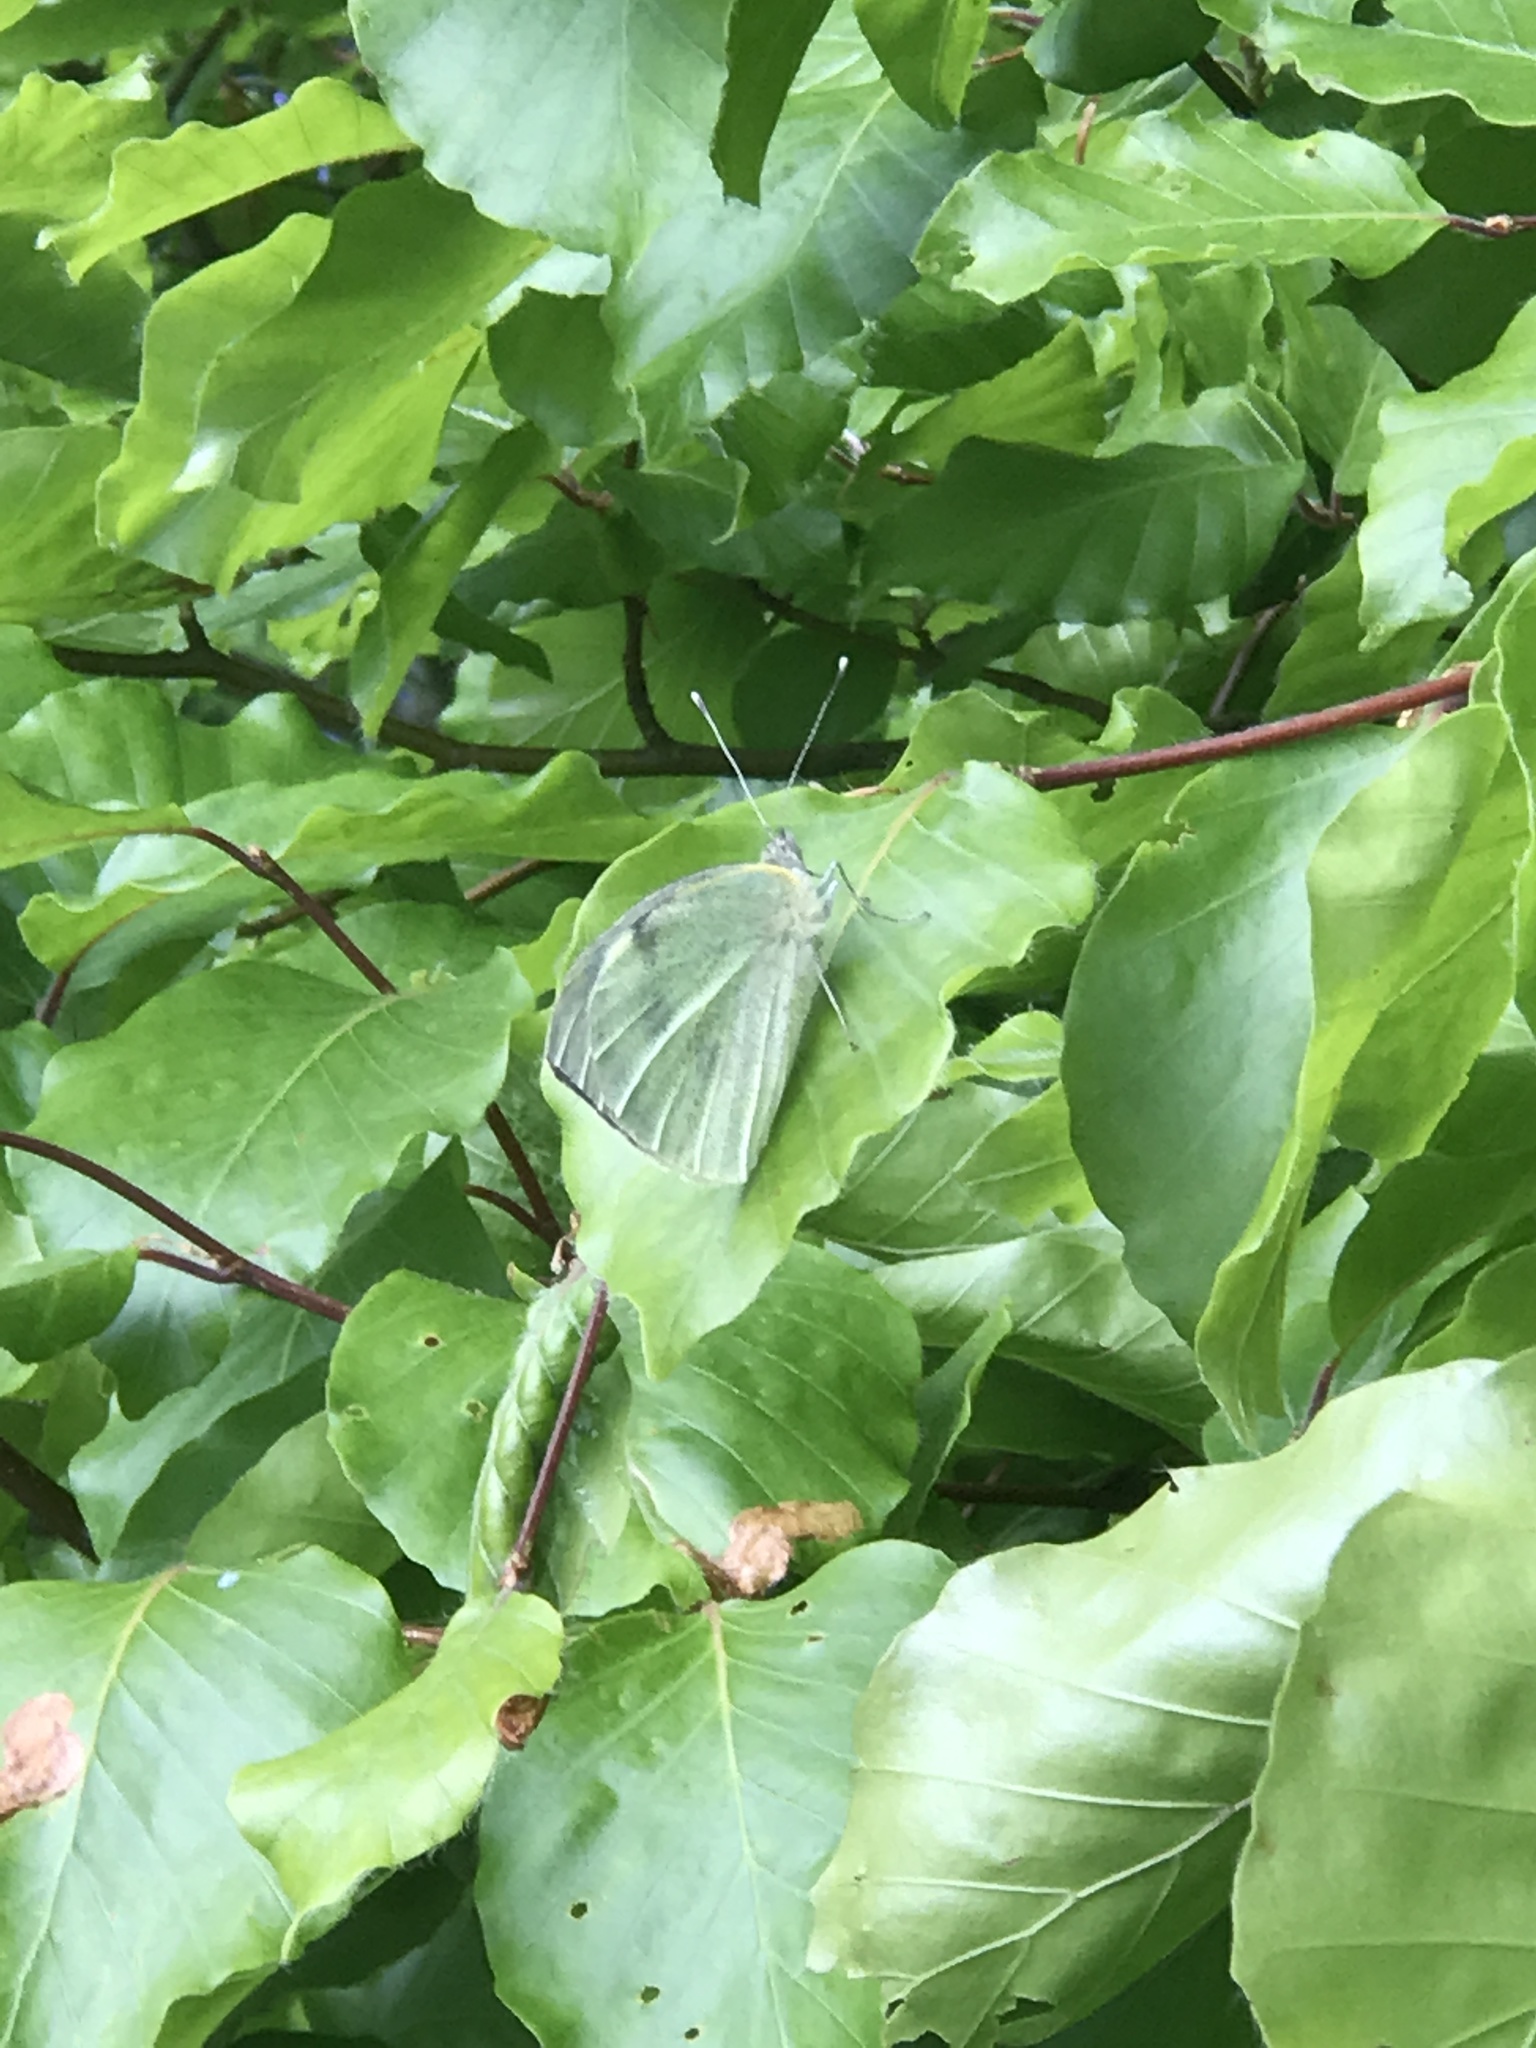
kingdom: Animalia
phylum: Arthropoda
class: Insecta
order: Lepidoptera
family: Pieridae
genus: Pieris
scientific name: Pieris brassicae
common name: Large white
